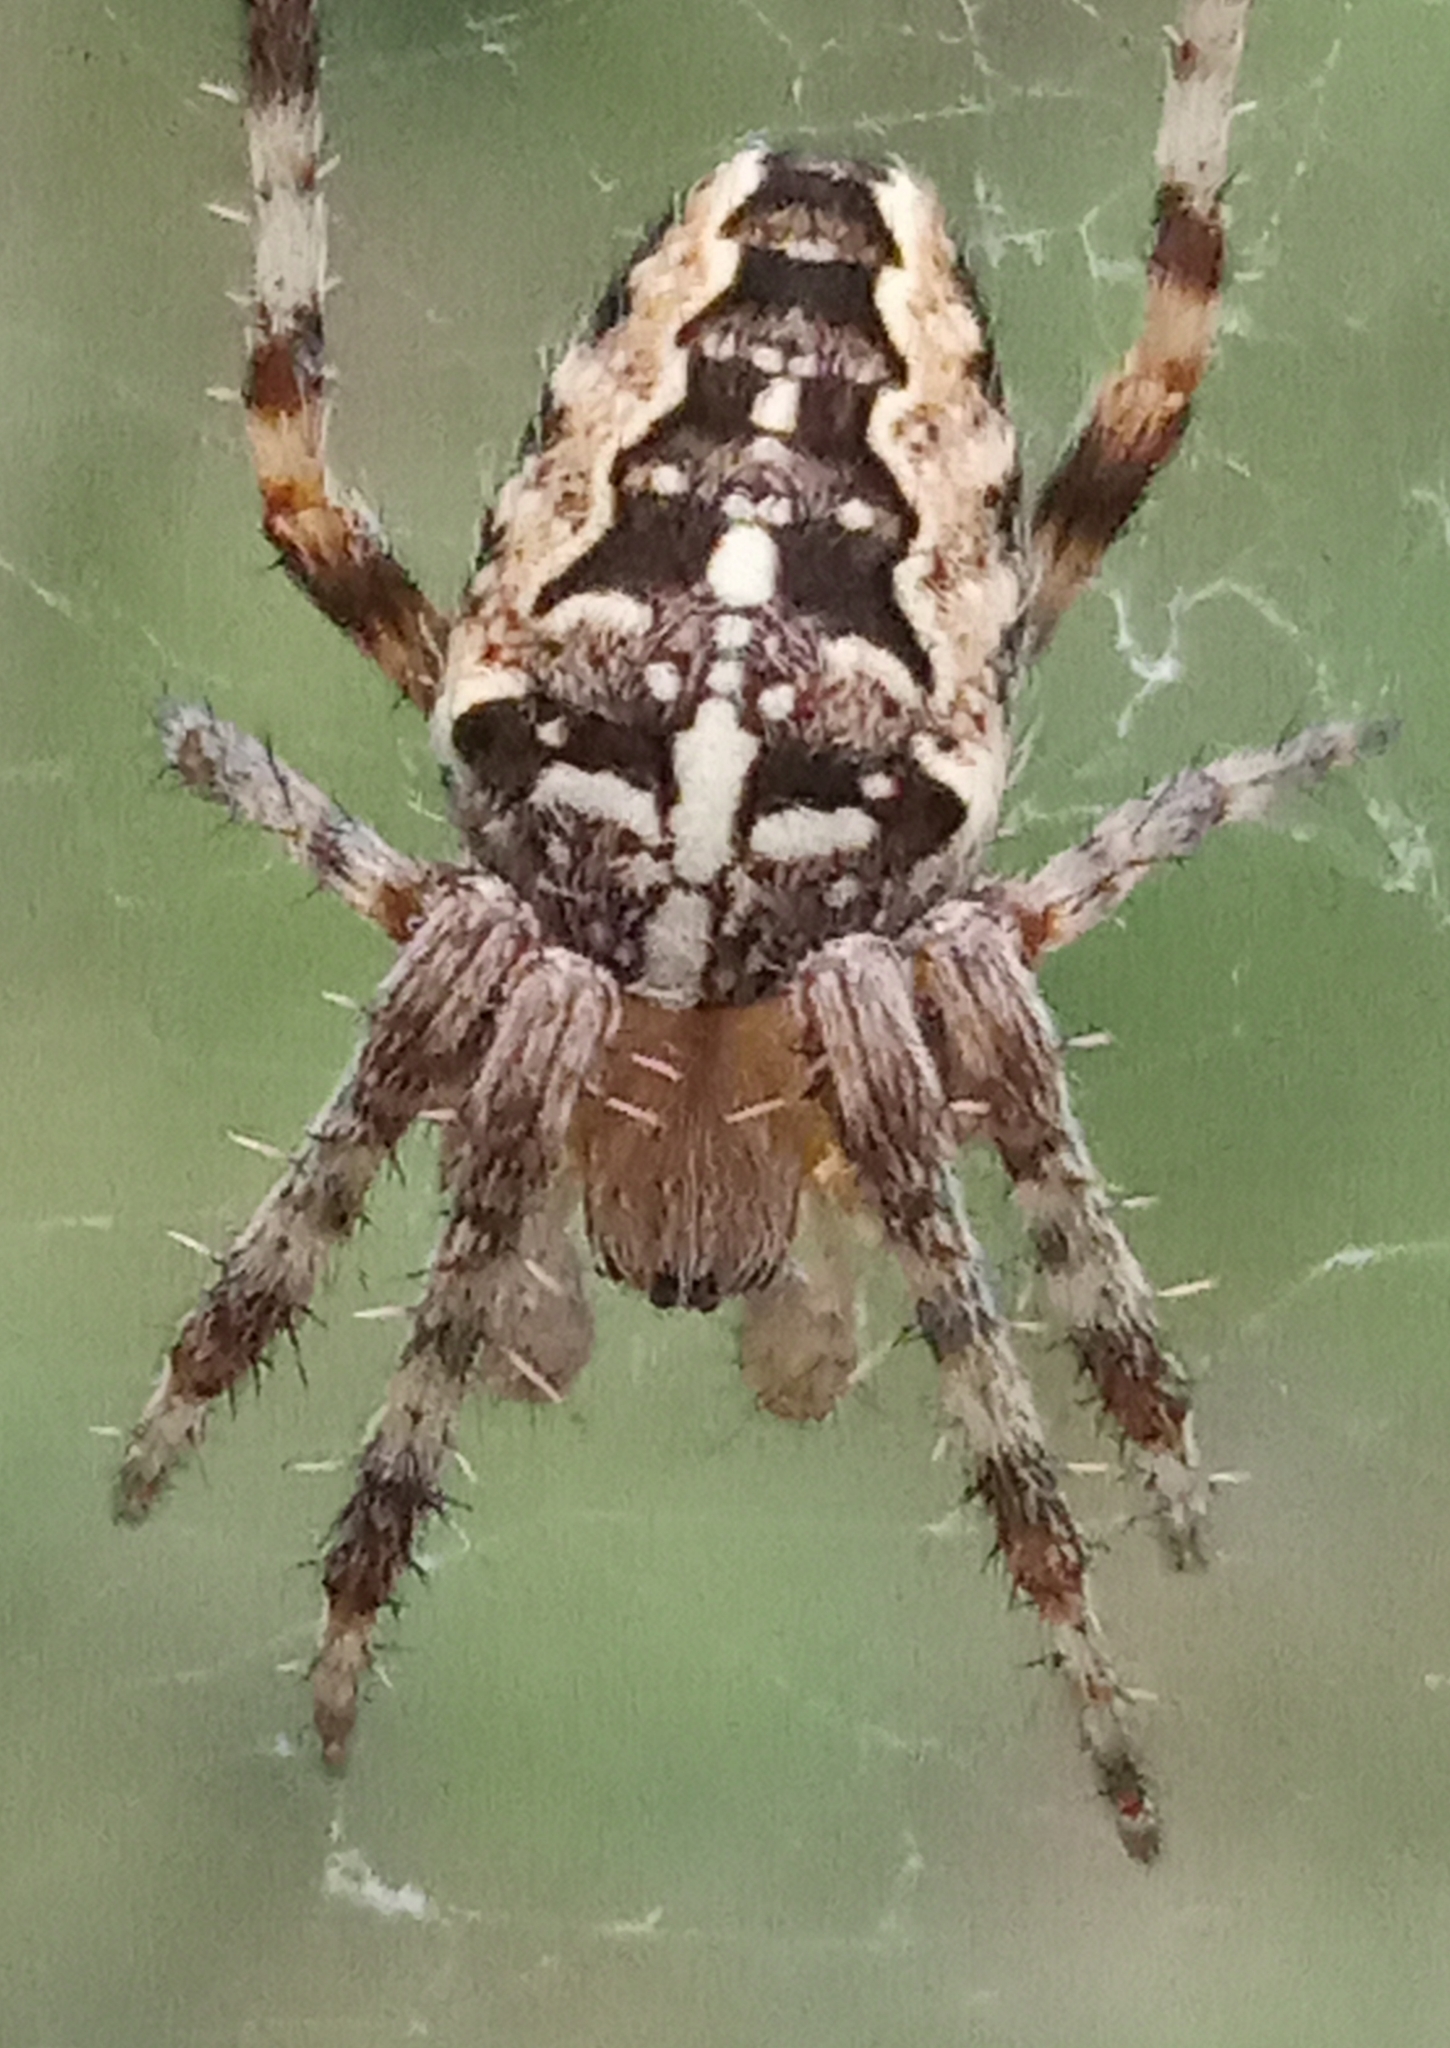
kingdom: Animalia
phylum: Arthropoda
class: Arachnida
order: Araneae
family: Araneidae
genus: Araneus
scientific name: Araneus diadematus
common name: Cross orbweaver
